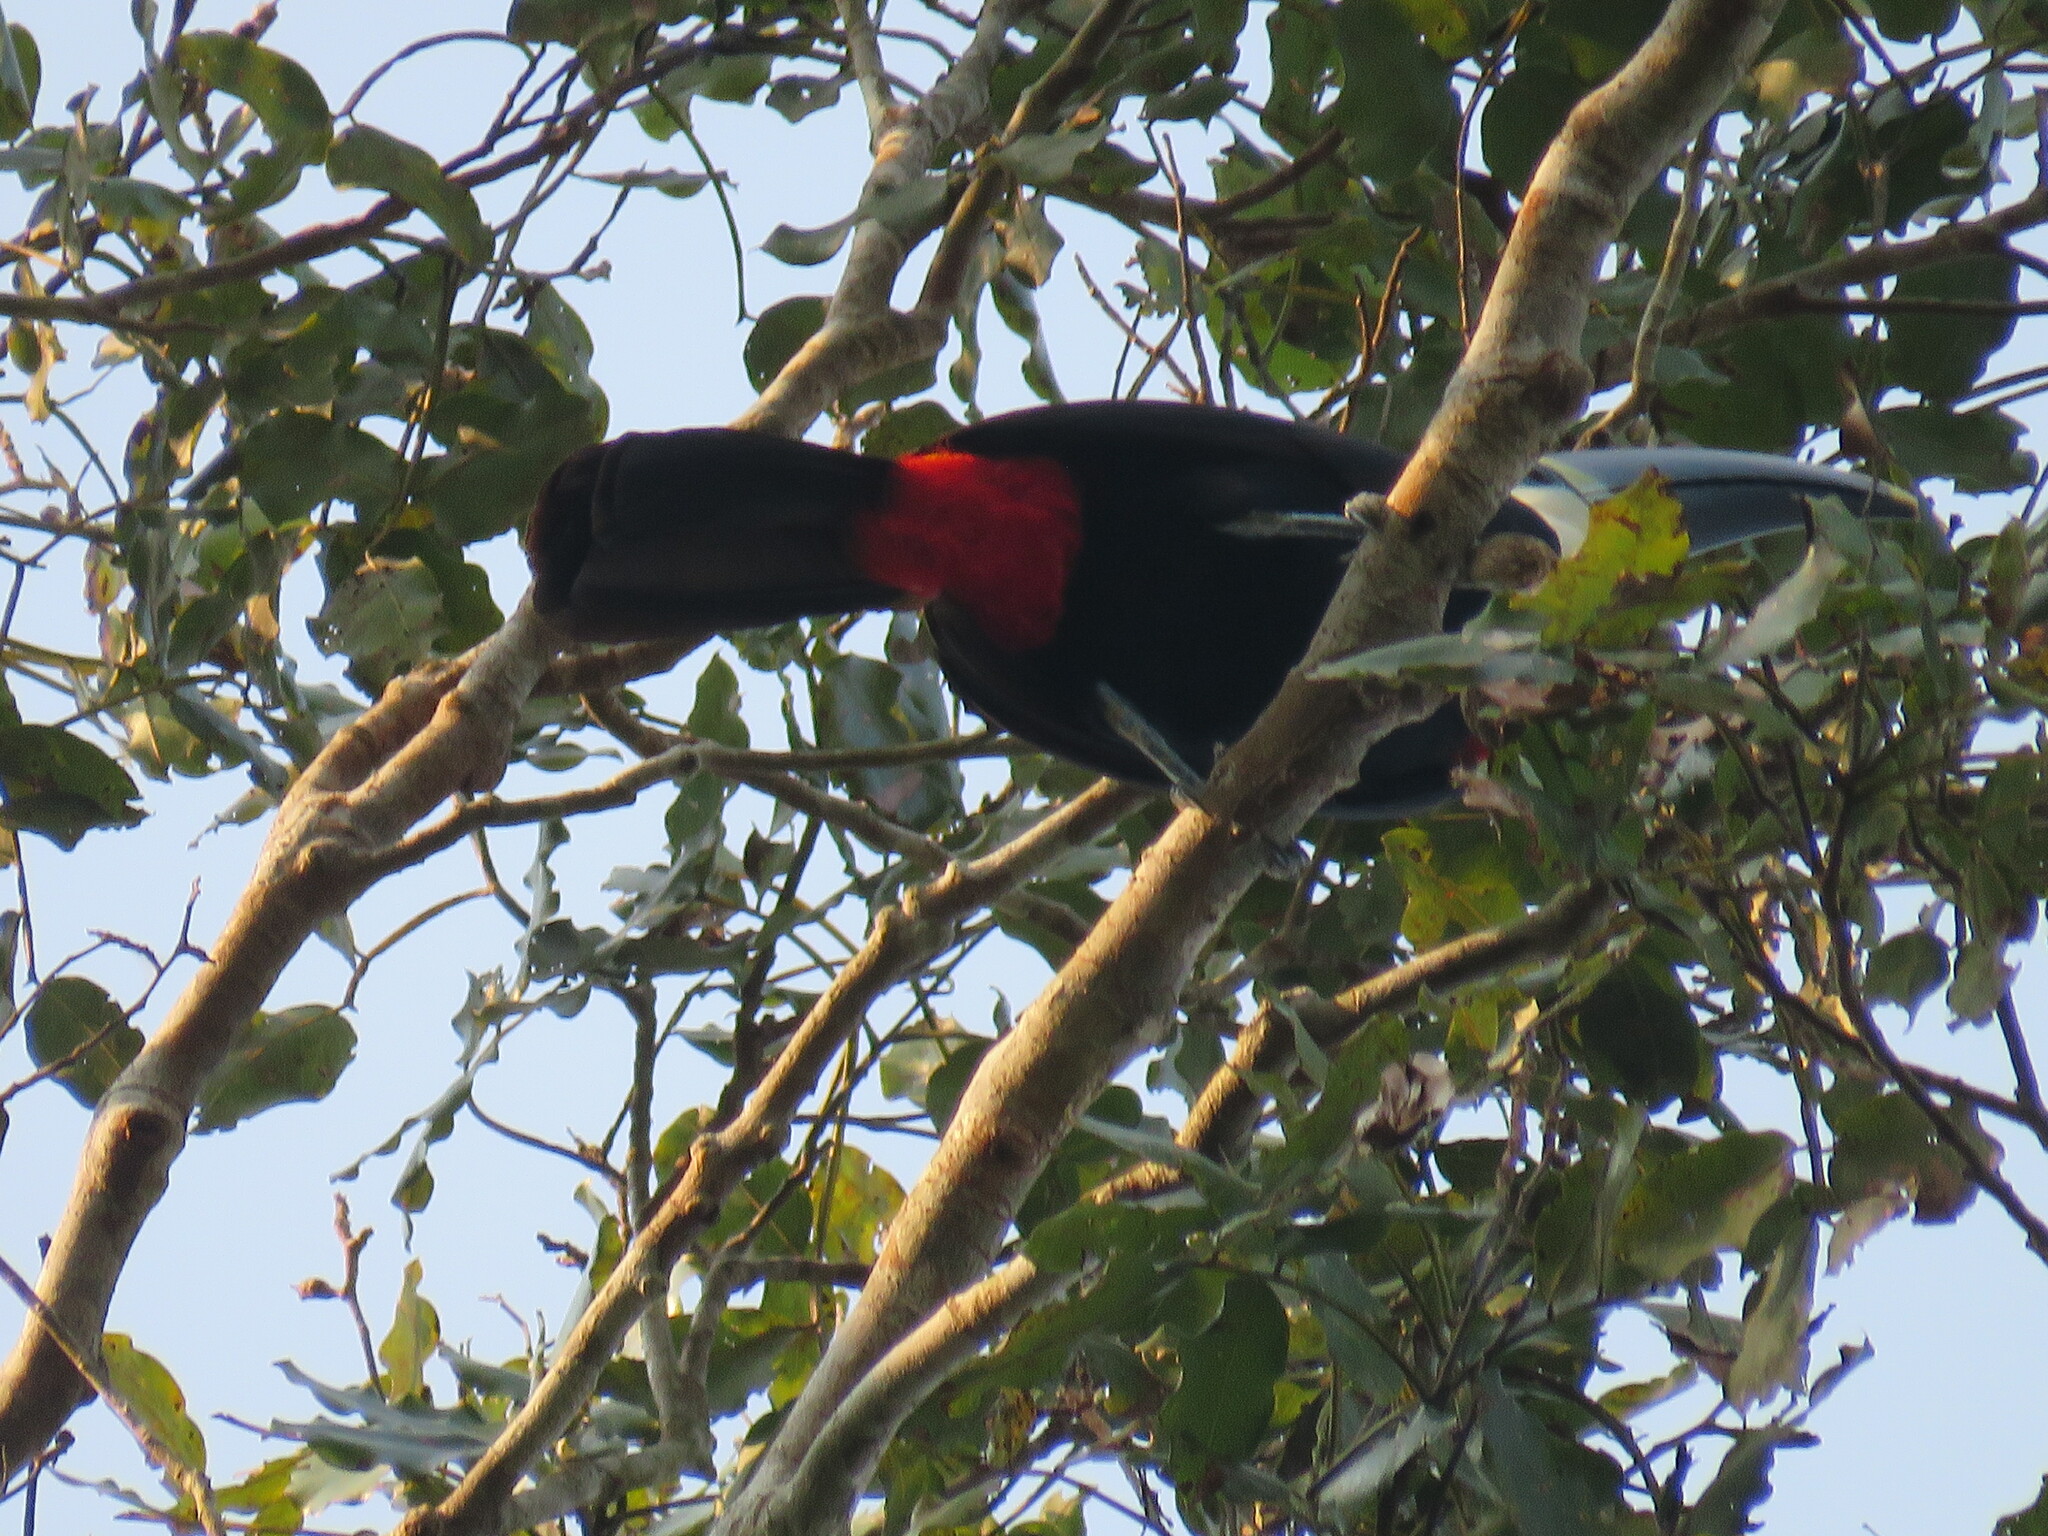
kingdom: Animalia
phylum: Chordata
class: Aves
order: Piciformes
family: Ramphastidae
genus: Ramphastos
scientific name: Ramphastos tucanus
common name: White-throated toucan
